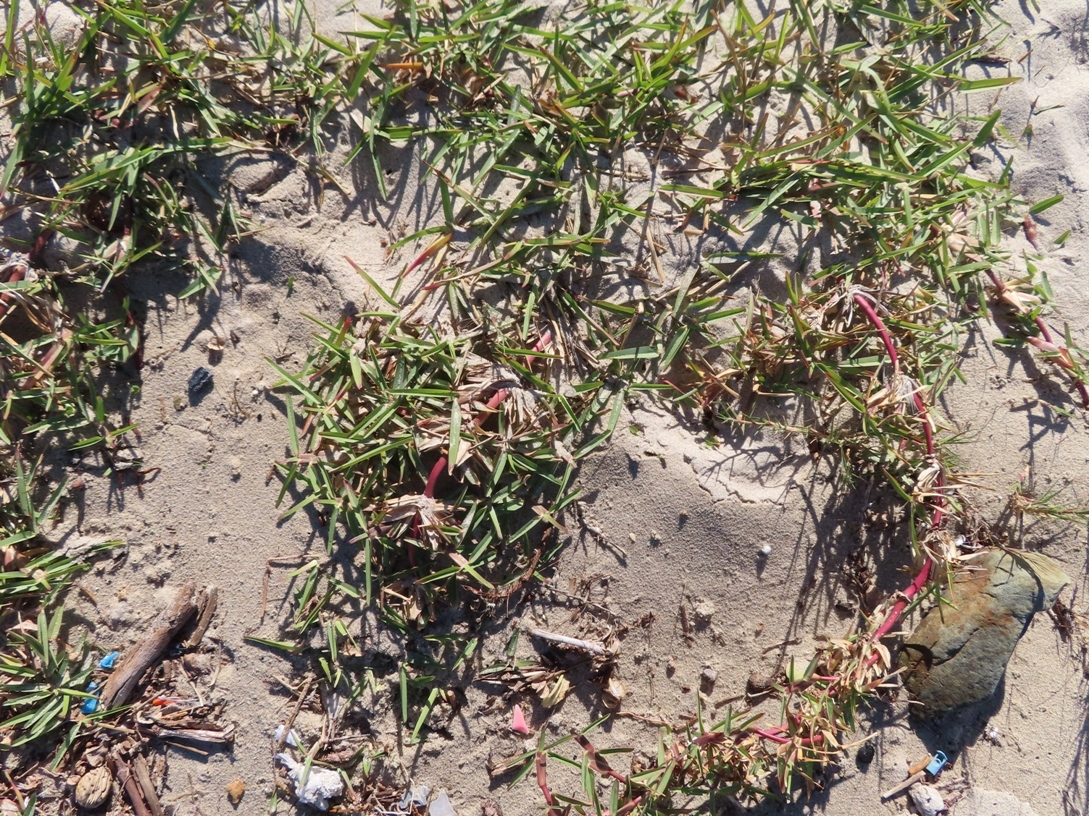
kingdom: Plantae
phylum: Tracheophyta
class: Liliopsida
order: Poales
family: Poaceae
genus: Stenotaphrum
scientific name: Stenotaphrum secundatum
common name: St. augustine grass
